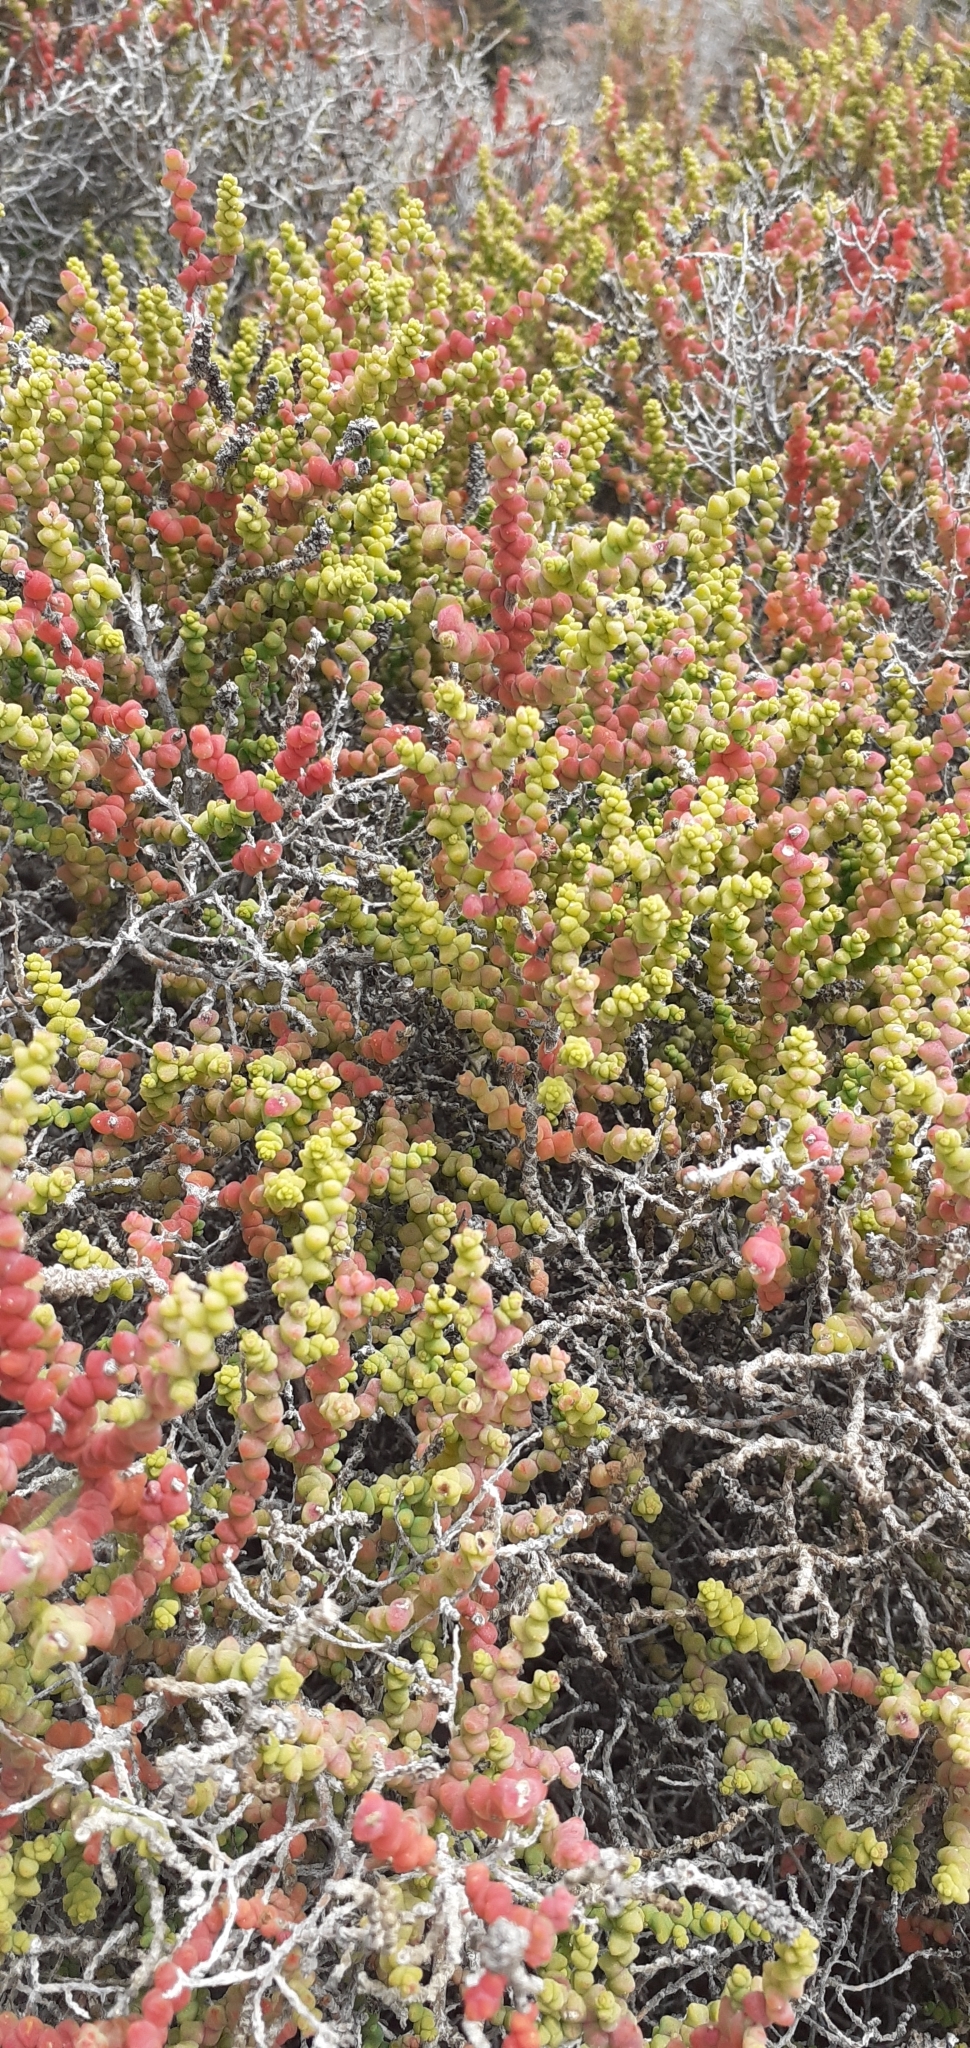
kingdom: Plantae
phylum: Tracheophyta
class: Magnoliopsida
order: Caryophyllales
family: Amaranthaceae
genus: Allenrolfea
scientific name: Allenrolfea patagonica
